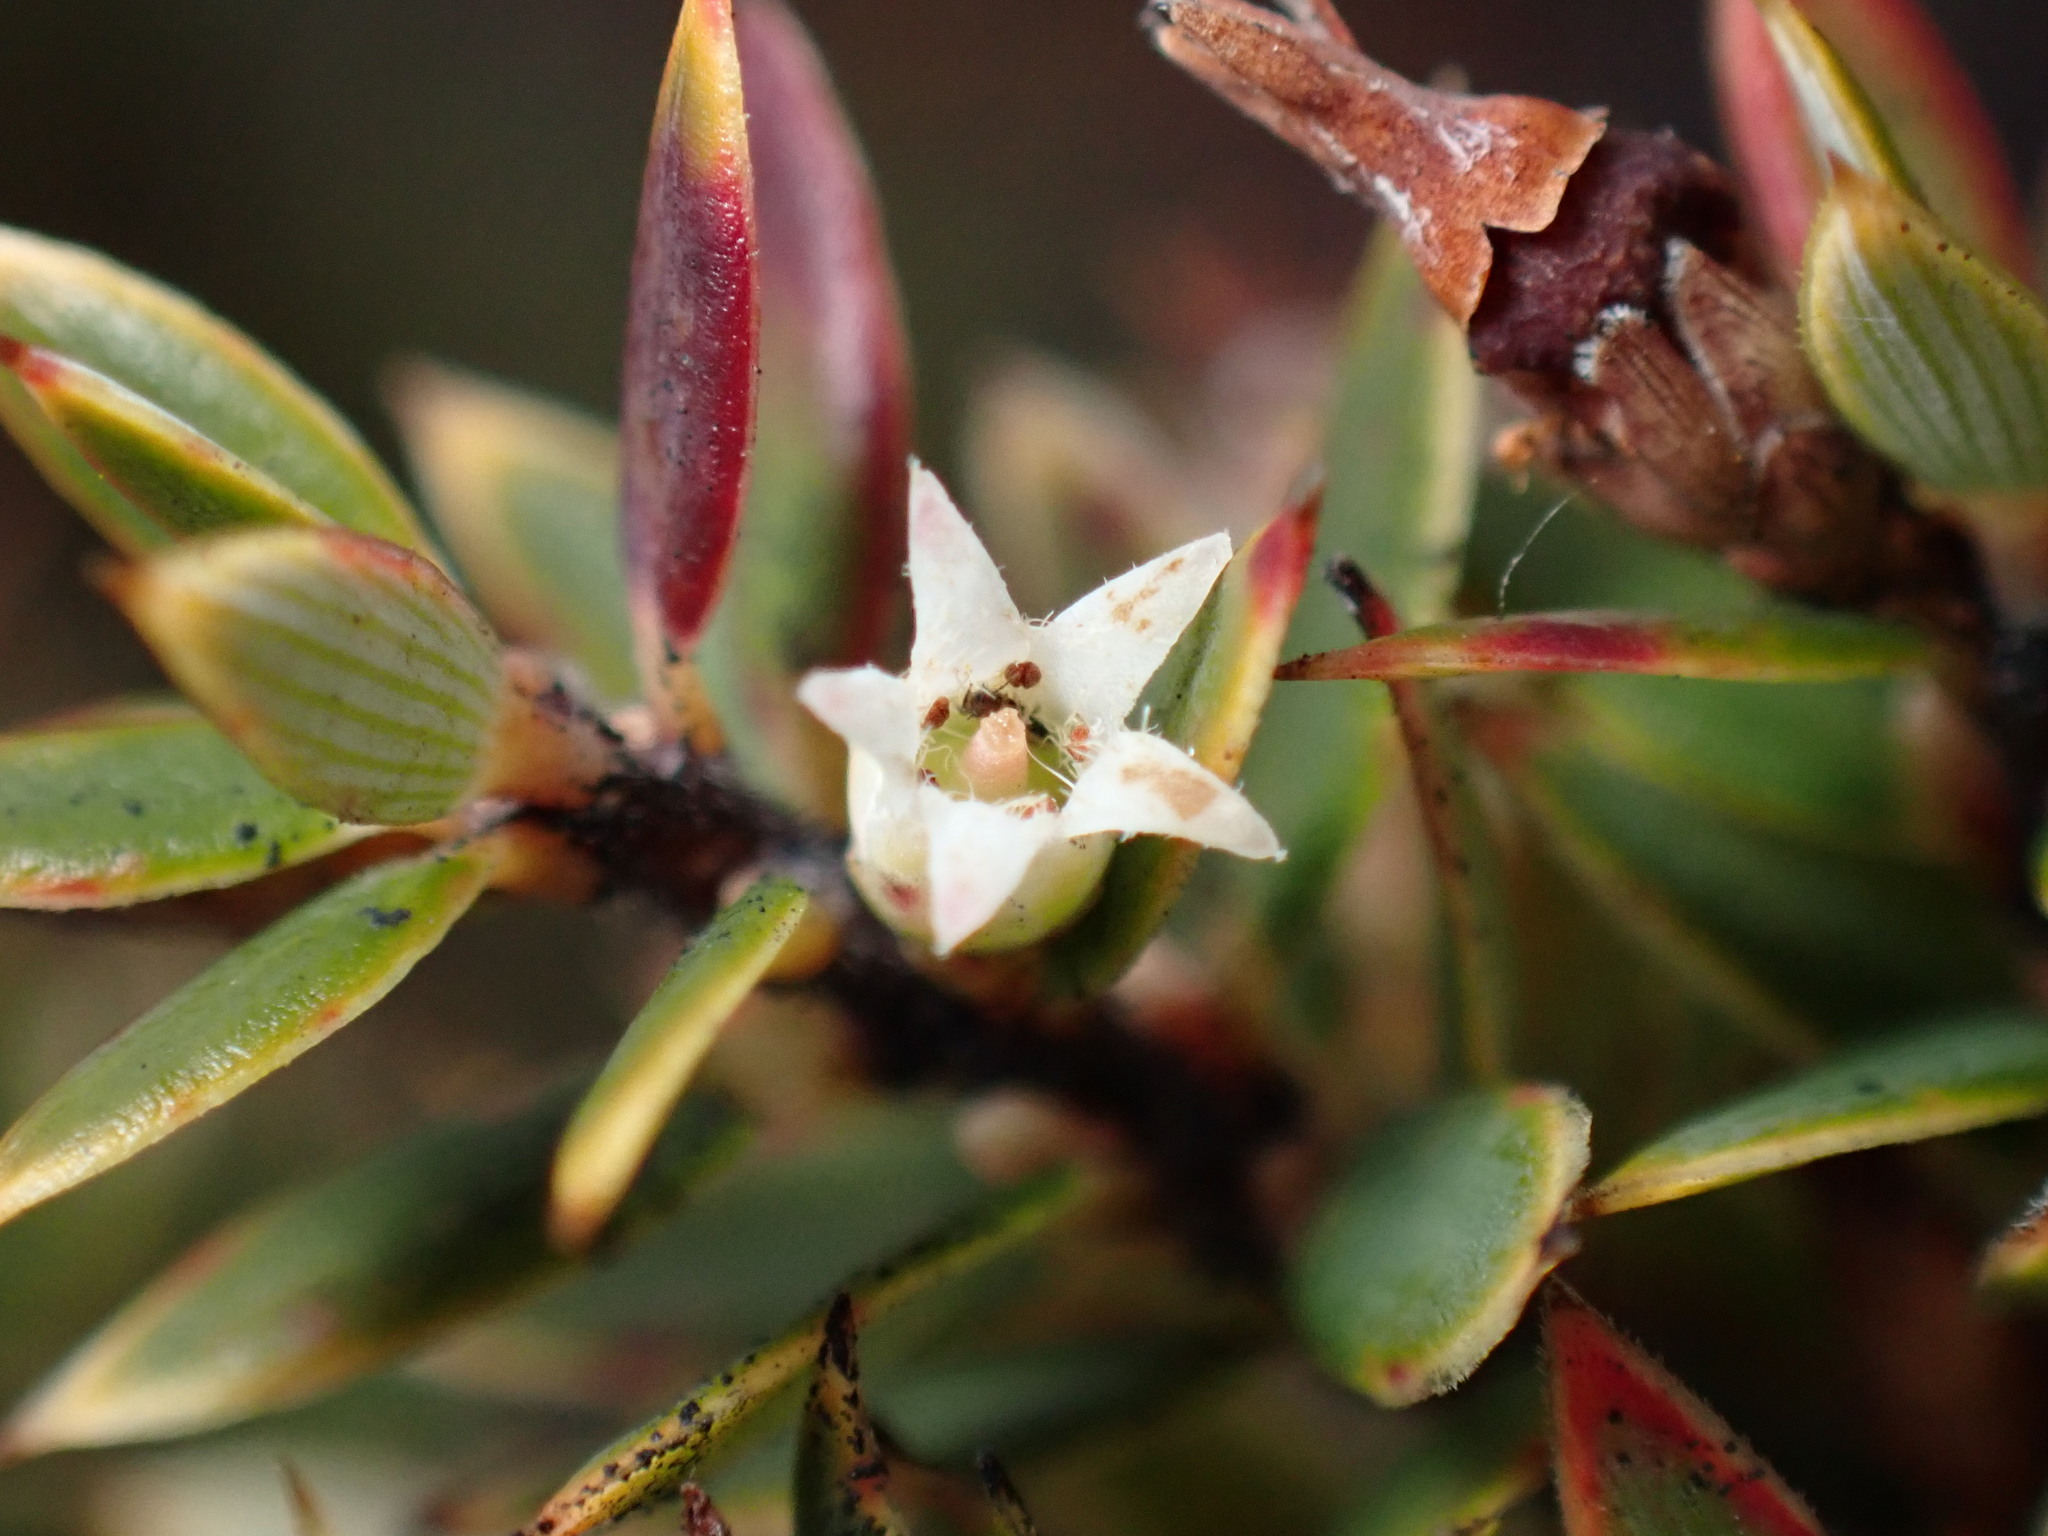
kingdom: Plantae
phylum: Tracheophyta
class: Magnoliopsida
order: Ericales
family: Ericaceae
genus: Leptecophylla
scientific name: Leptecophylla tameiameiae
